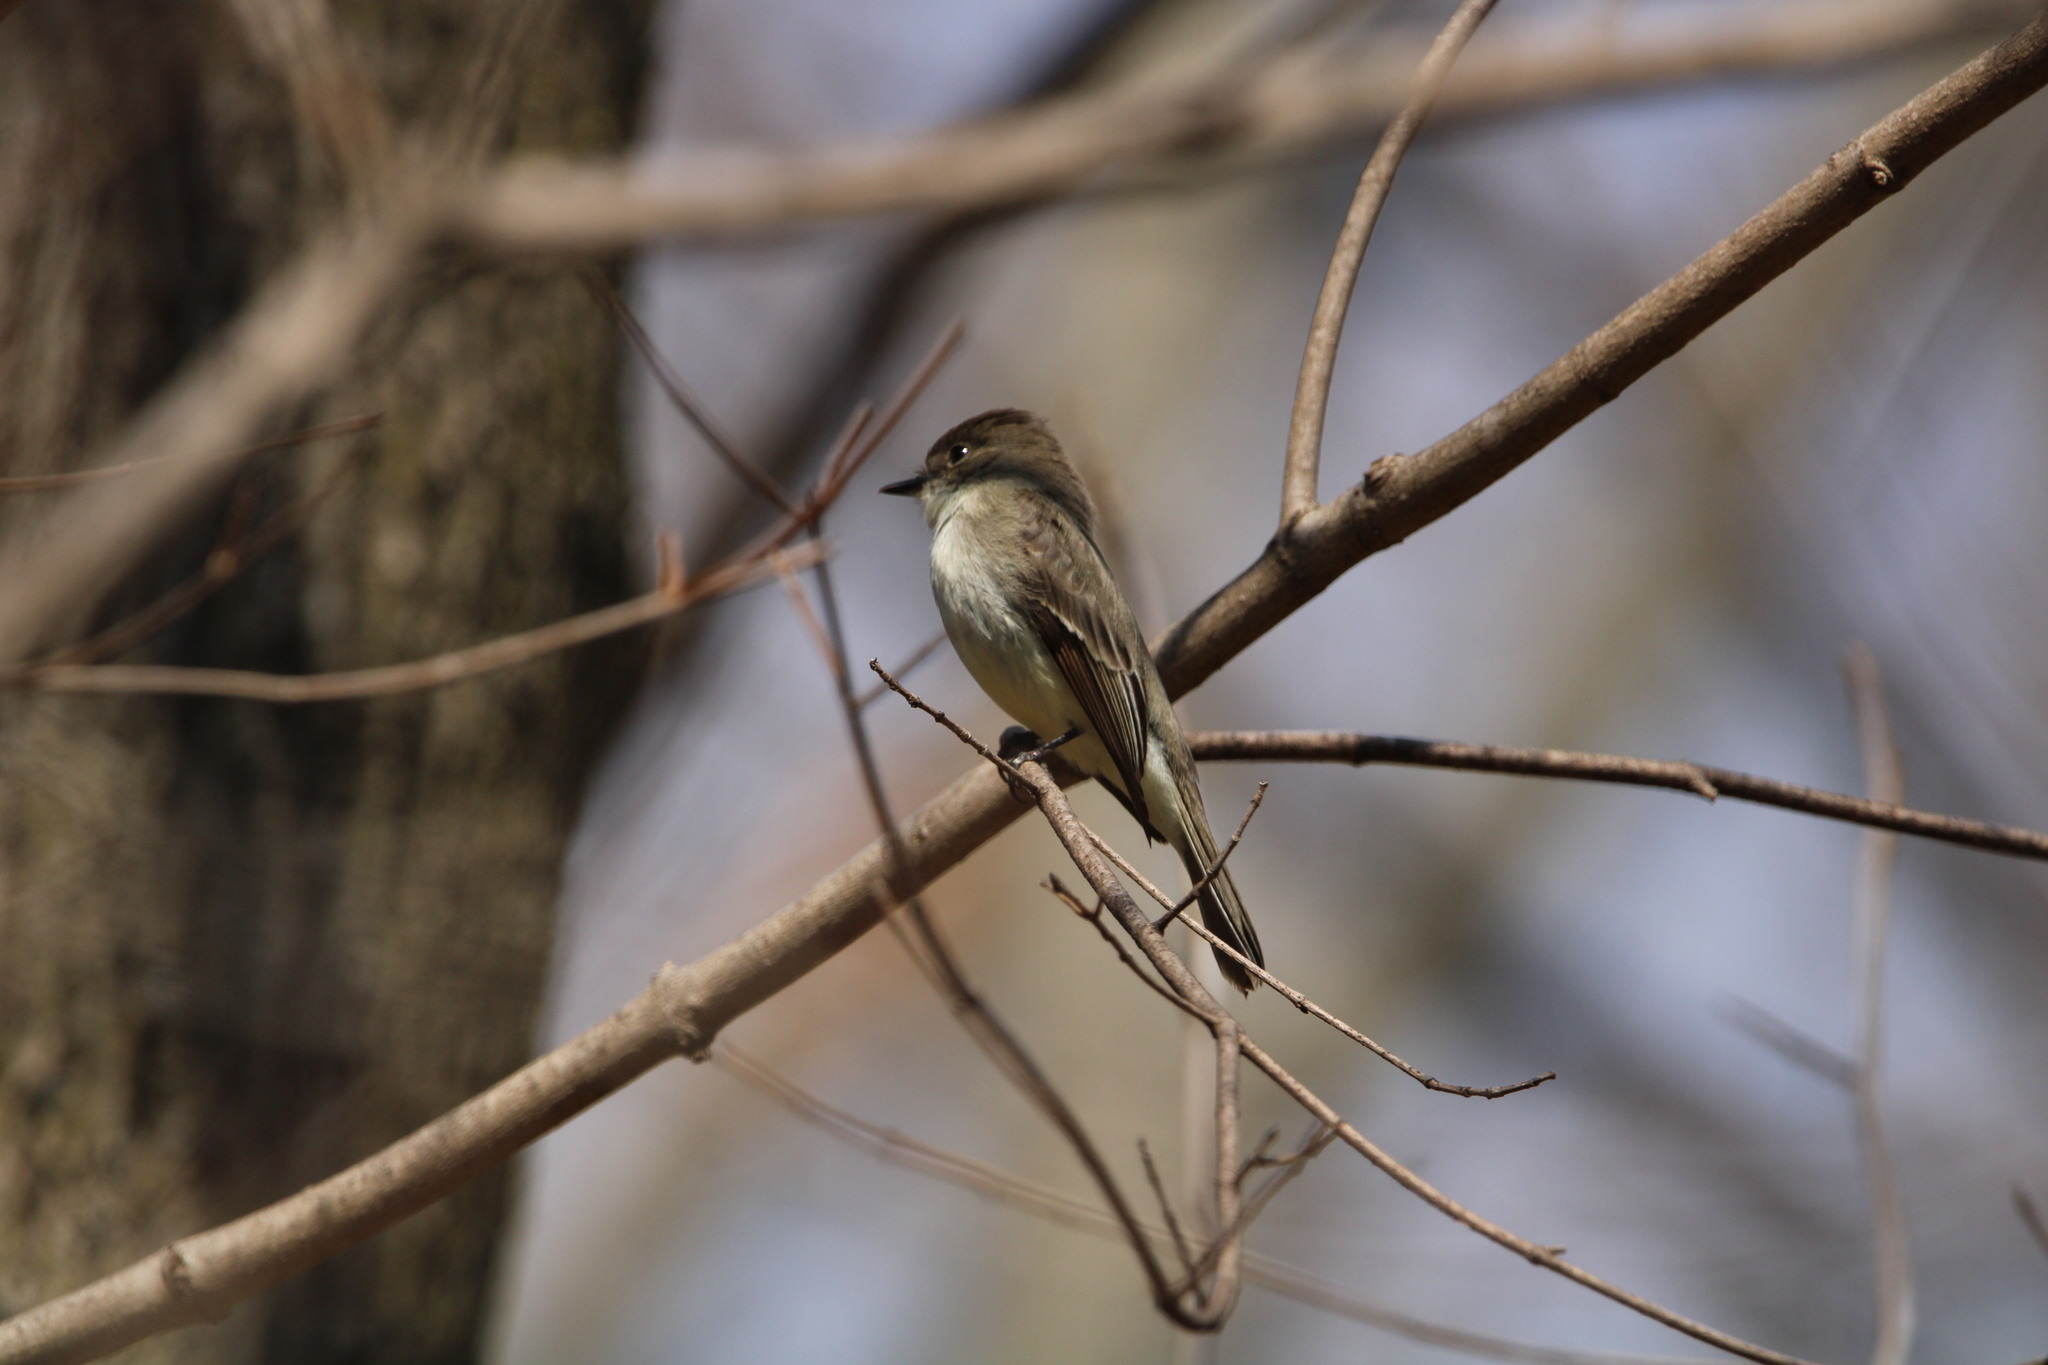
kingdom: Animalia
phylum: Chordata
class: Aves
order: Passeriformes
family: Tyrannidae
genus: Sayornis
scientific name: Sayornis phoebe
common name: Eastern phoebe
